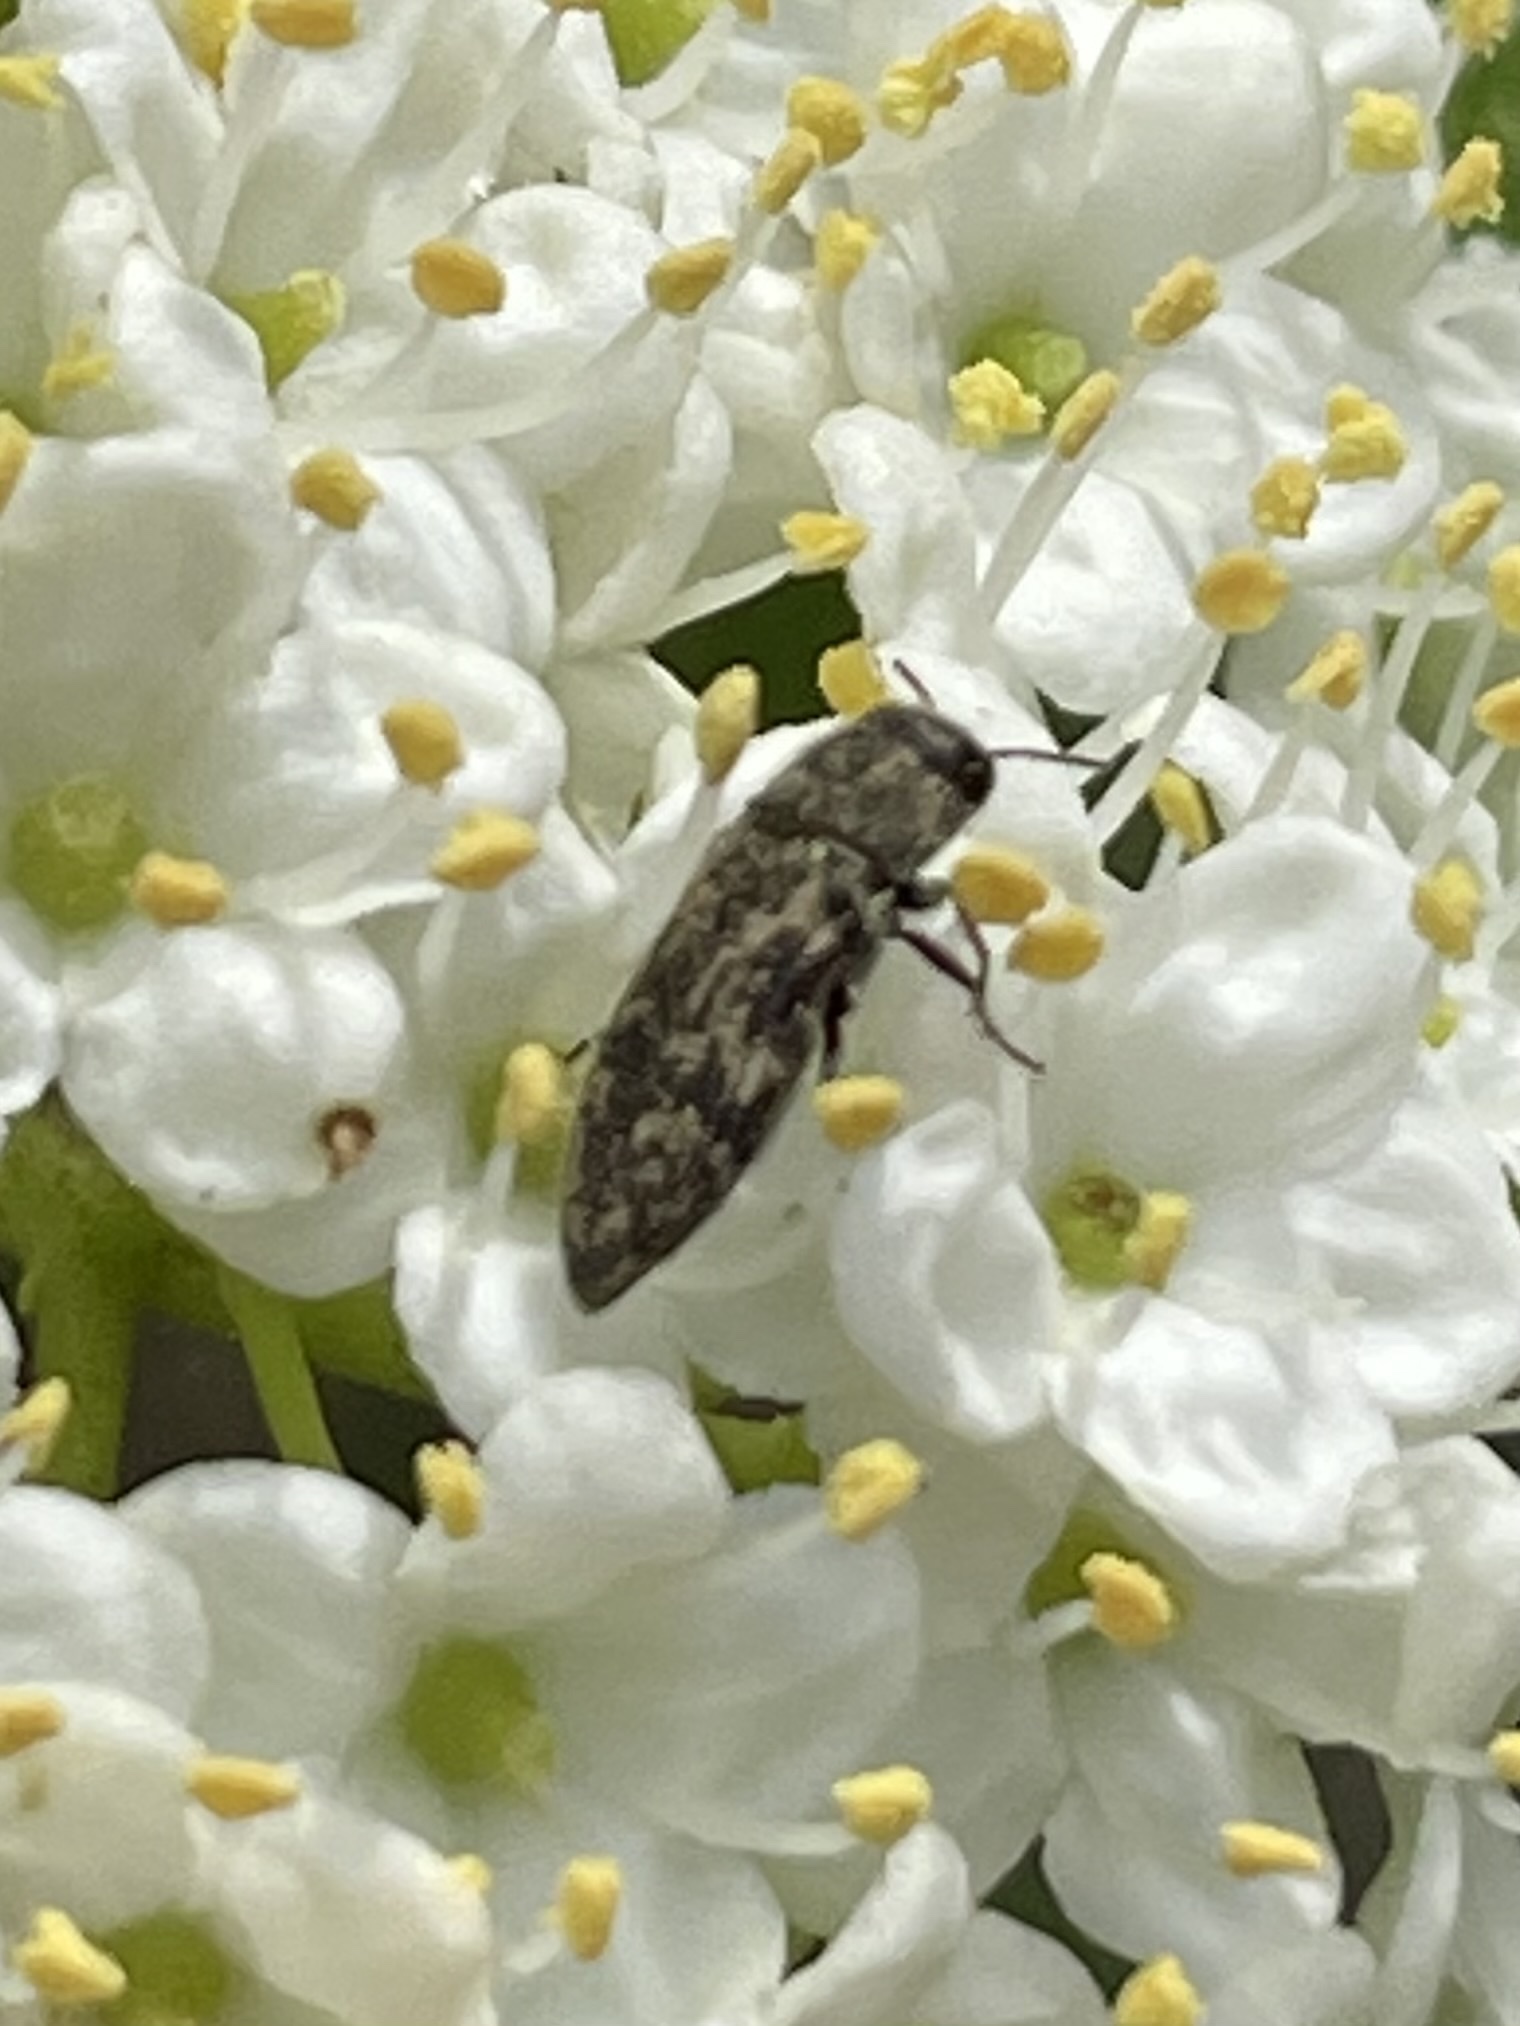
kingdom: Animalia
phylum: Arthropoda
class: Insecta
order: Coleoptera
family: Buprestidae
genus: Acmaeodera
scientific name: Acmaeodera neglecta
